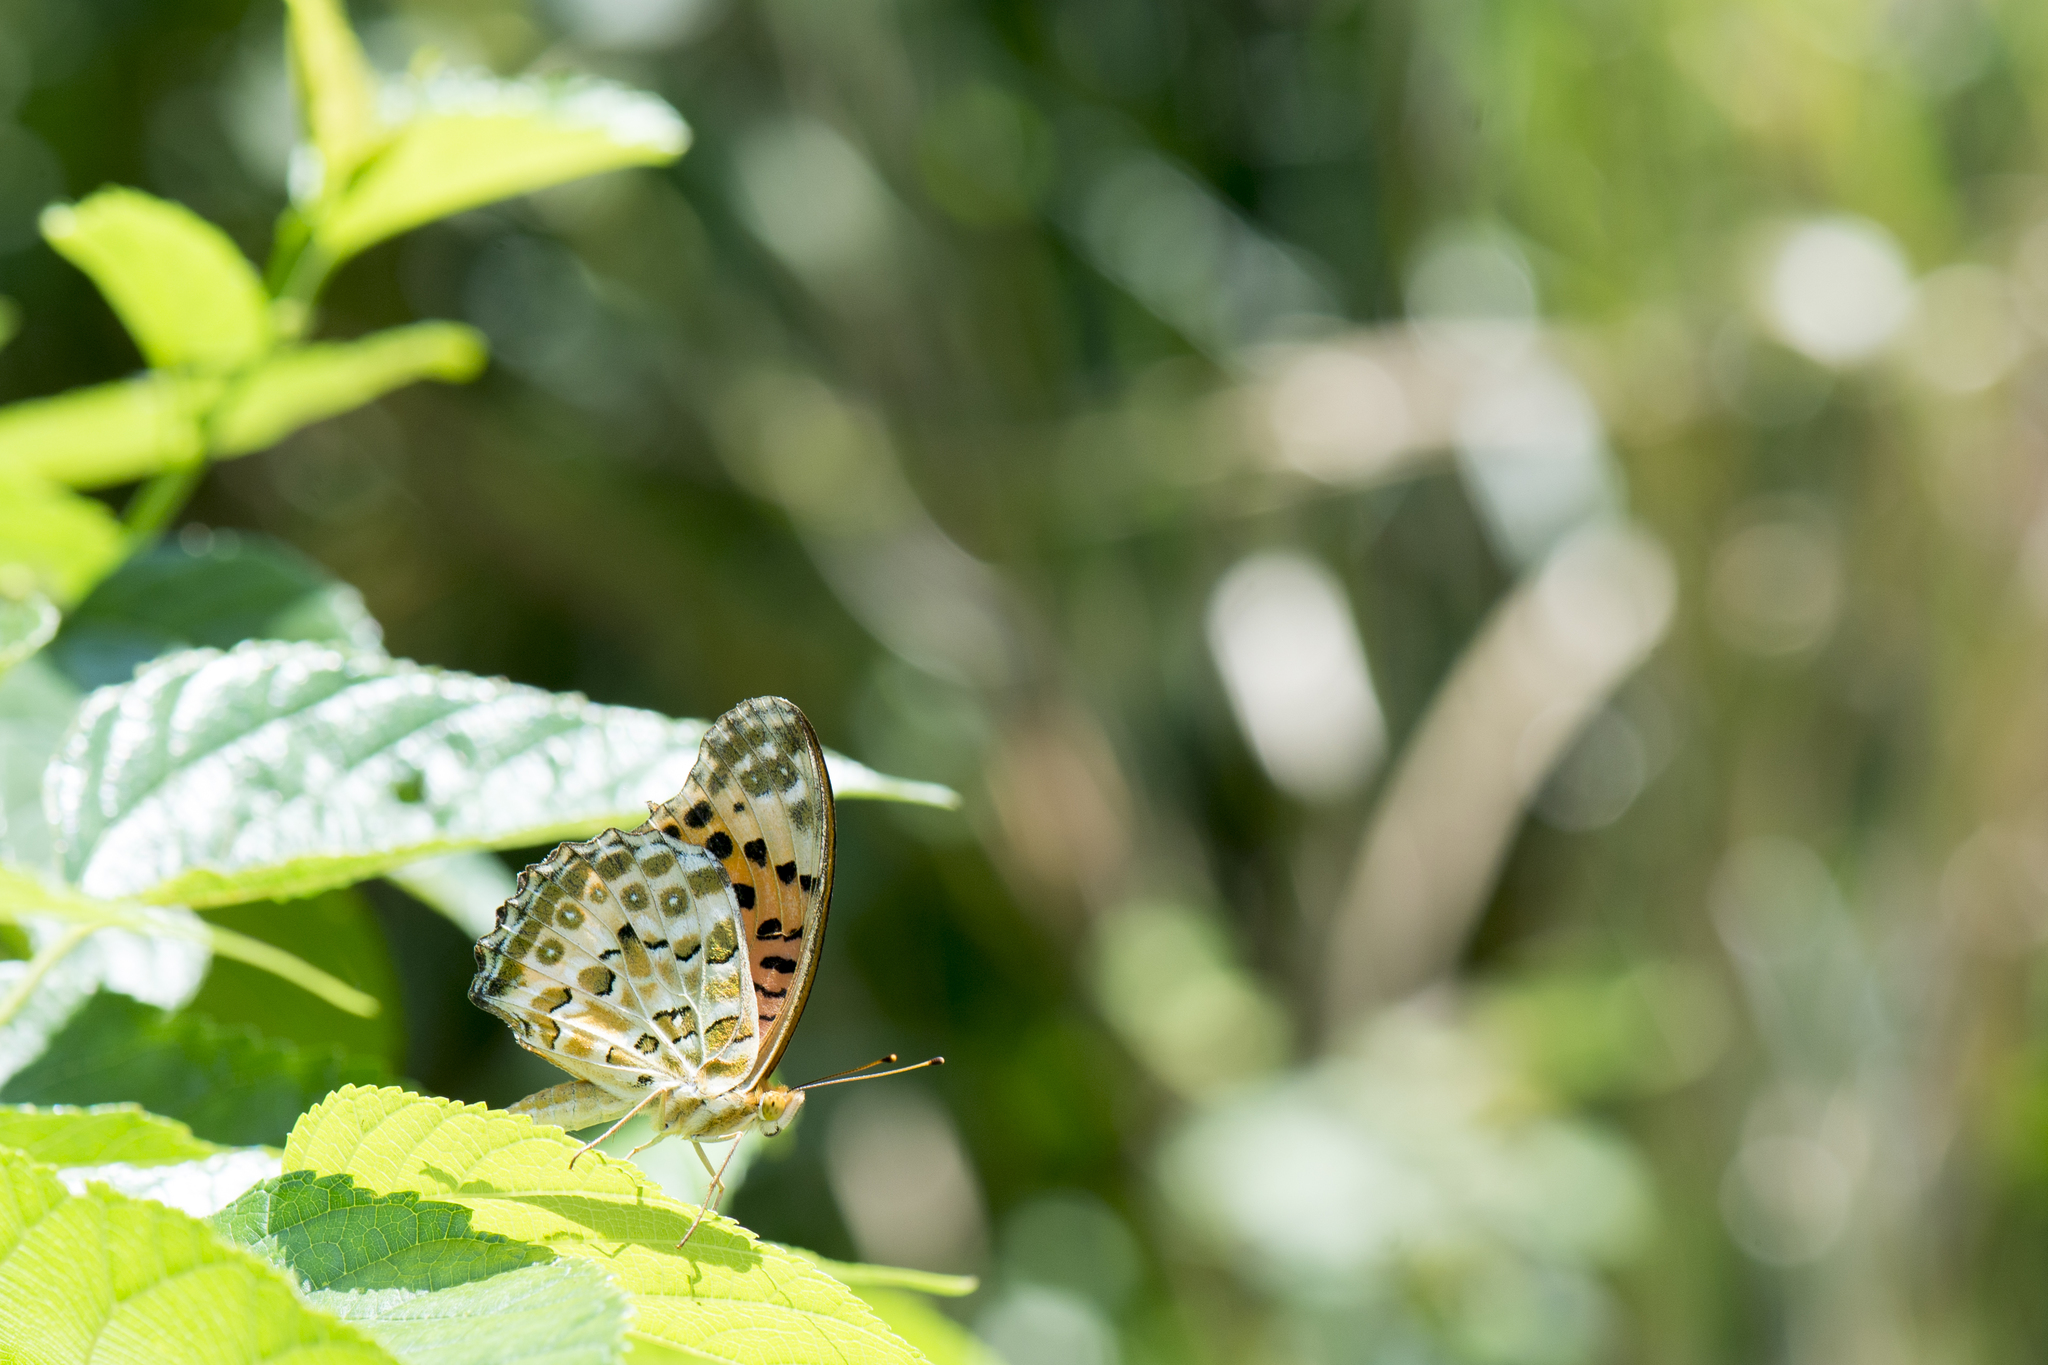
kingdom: Animalia
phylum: Arthropoda
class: Insecta
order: Lepidoptera
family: Nymphalidae
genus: Argynnis
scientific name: Argynnis hyperbius
